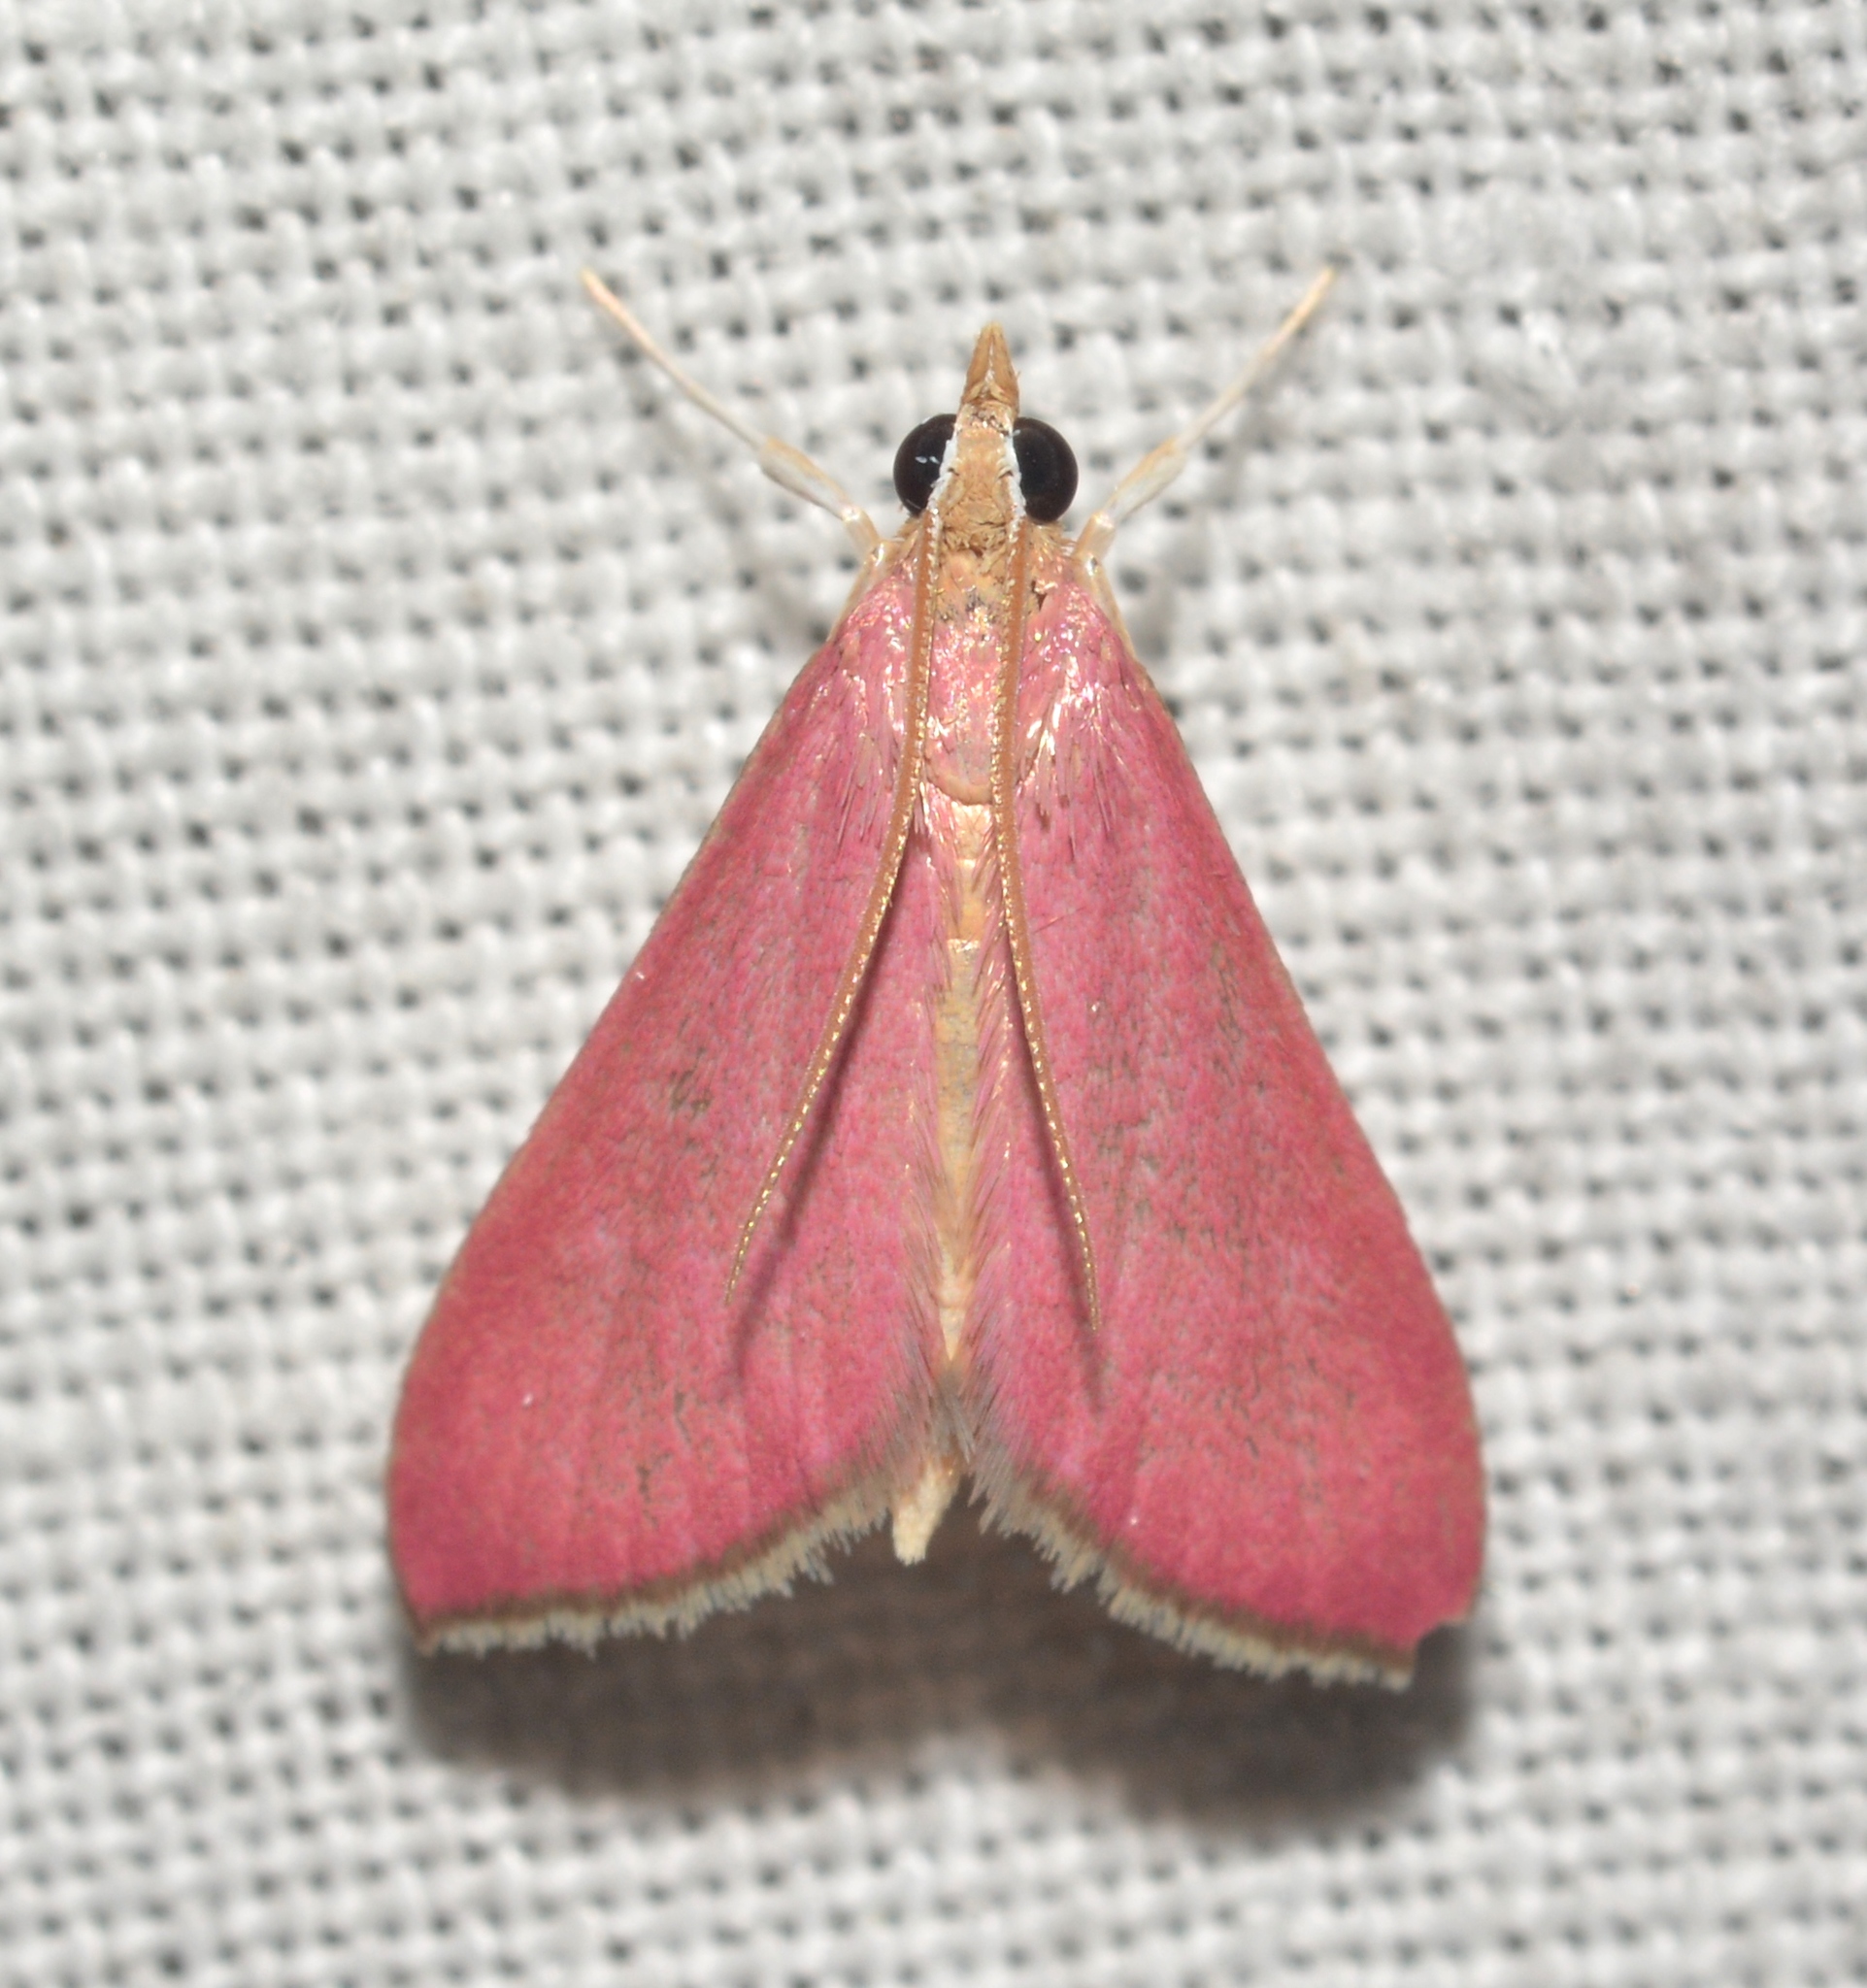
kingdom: Animalia
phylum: Arthropoda
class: Insecta
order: Lepidoptera
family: Crambidae
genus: Pyrausta
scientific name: Pyrausta inornatalis
